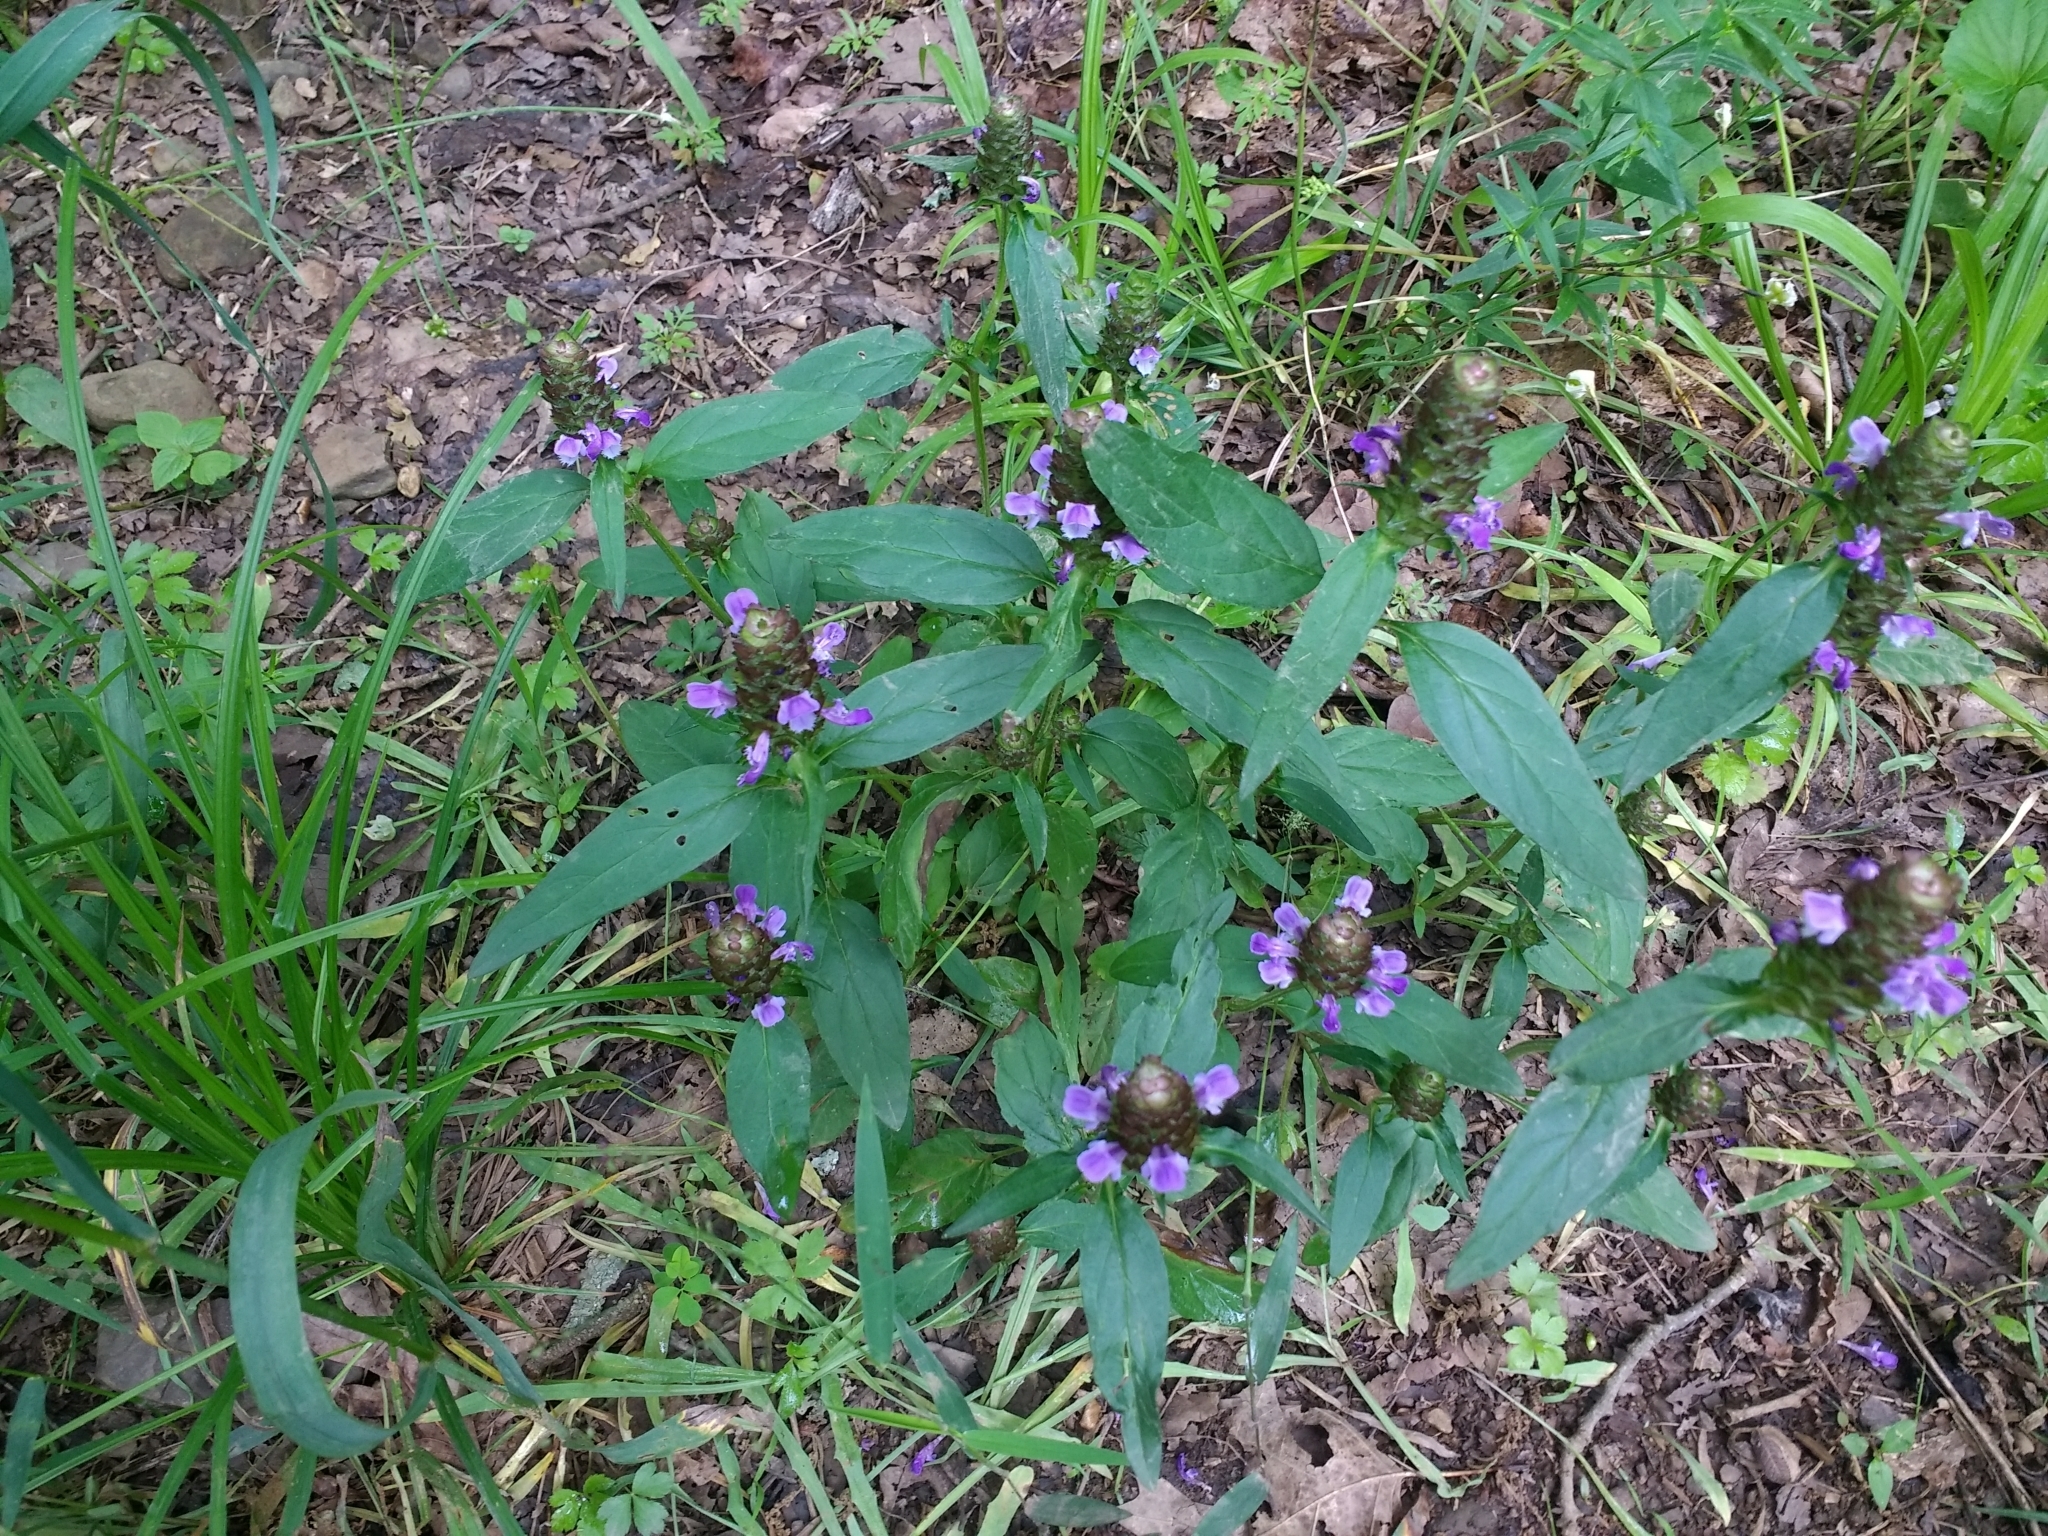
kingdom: Plantae
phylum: Tracheophyta
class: Magnoliopsida
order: Lamiales
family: Lamiaceae
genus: Prunella
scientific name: Prunella vulgaris
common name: Heal-all
